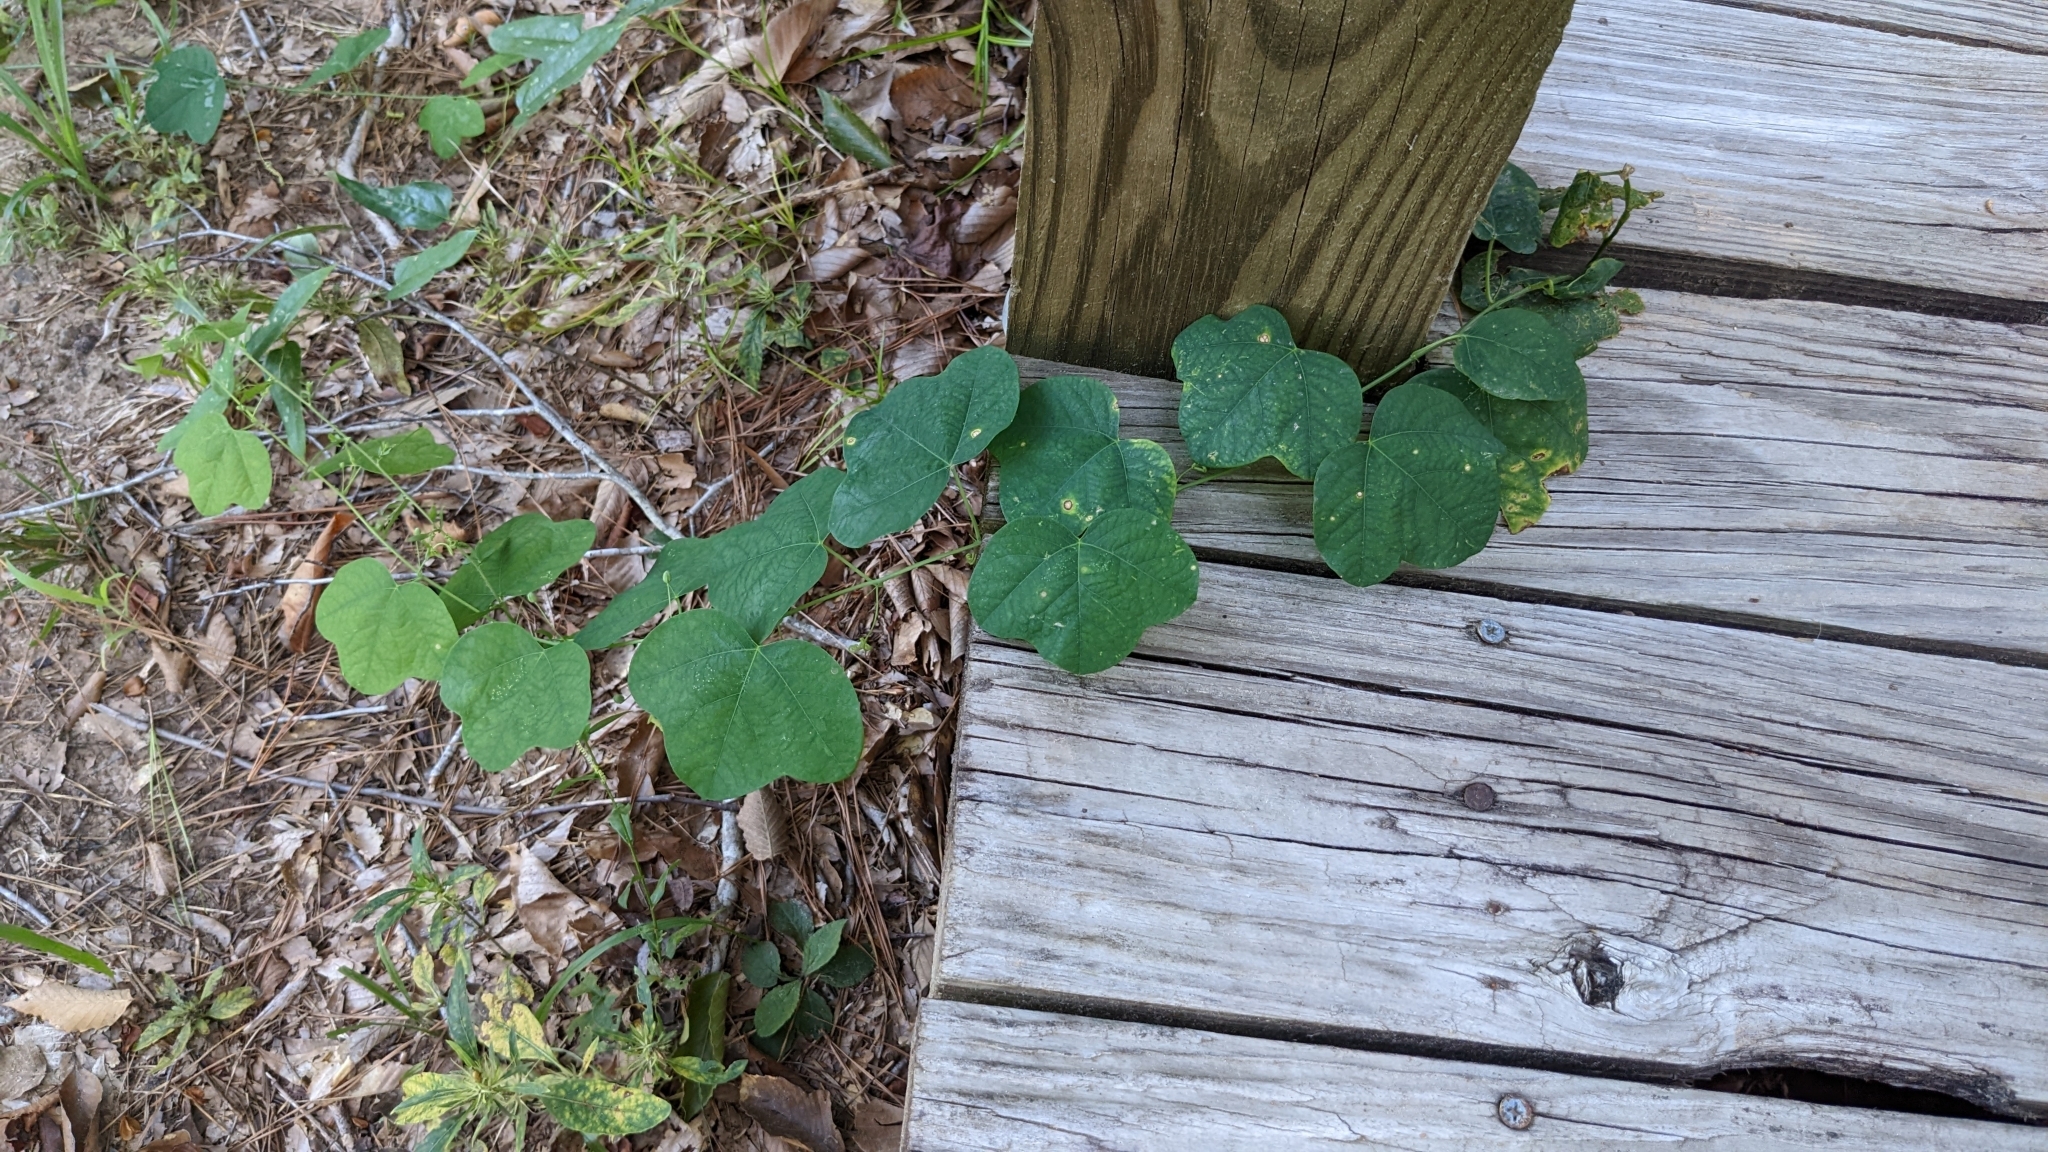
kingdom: Plantae
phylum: Tracheophyta
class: Magnoliopsida
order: Malpighiales
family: Passifloraceae
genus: Passiflora
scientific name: Passiflora lutea
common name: Yellow passionflower
